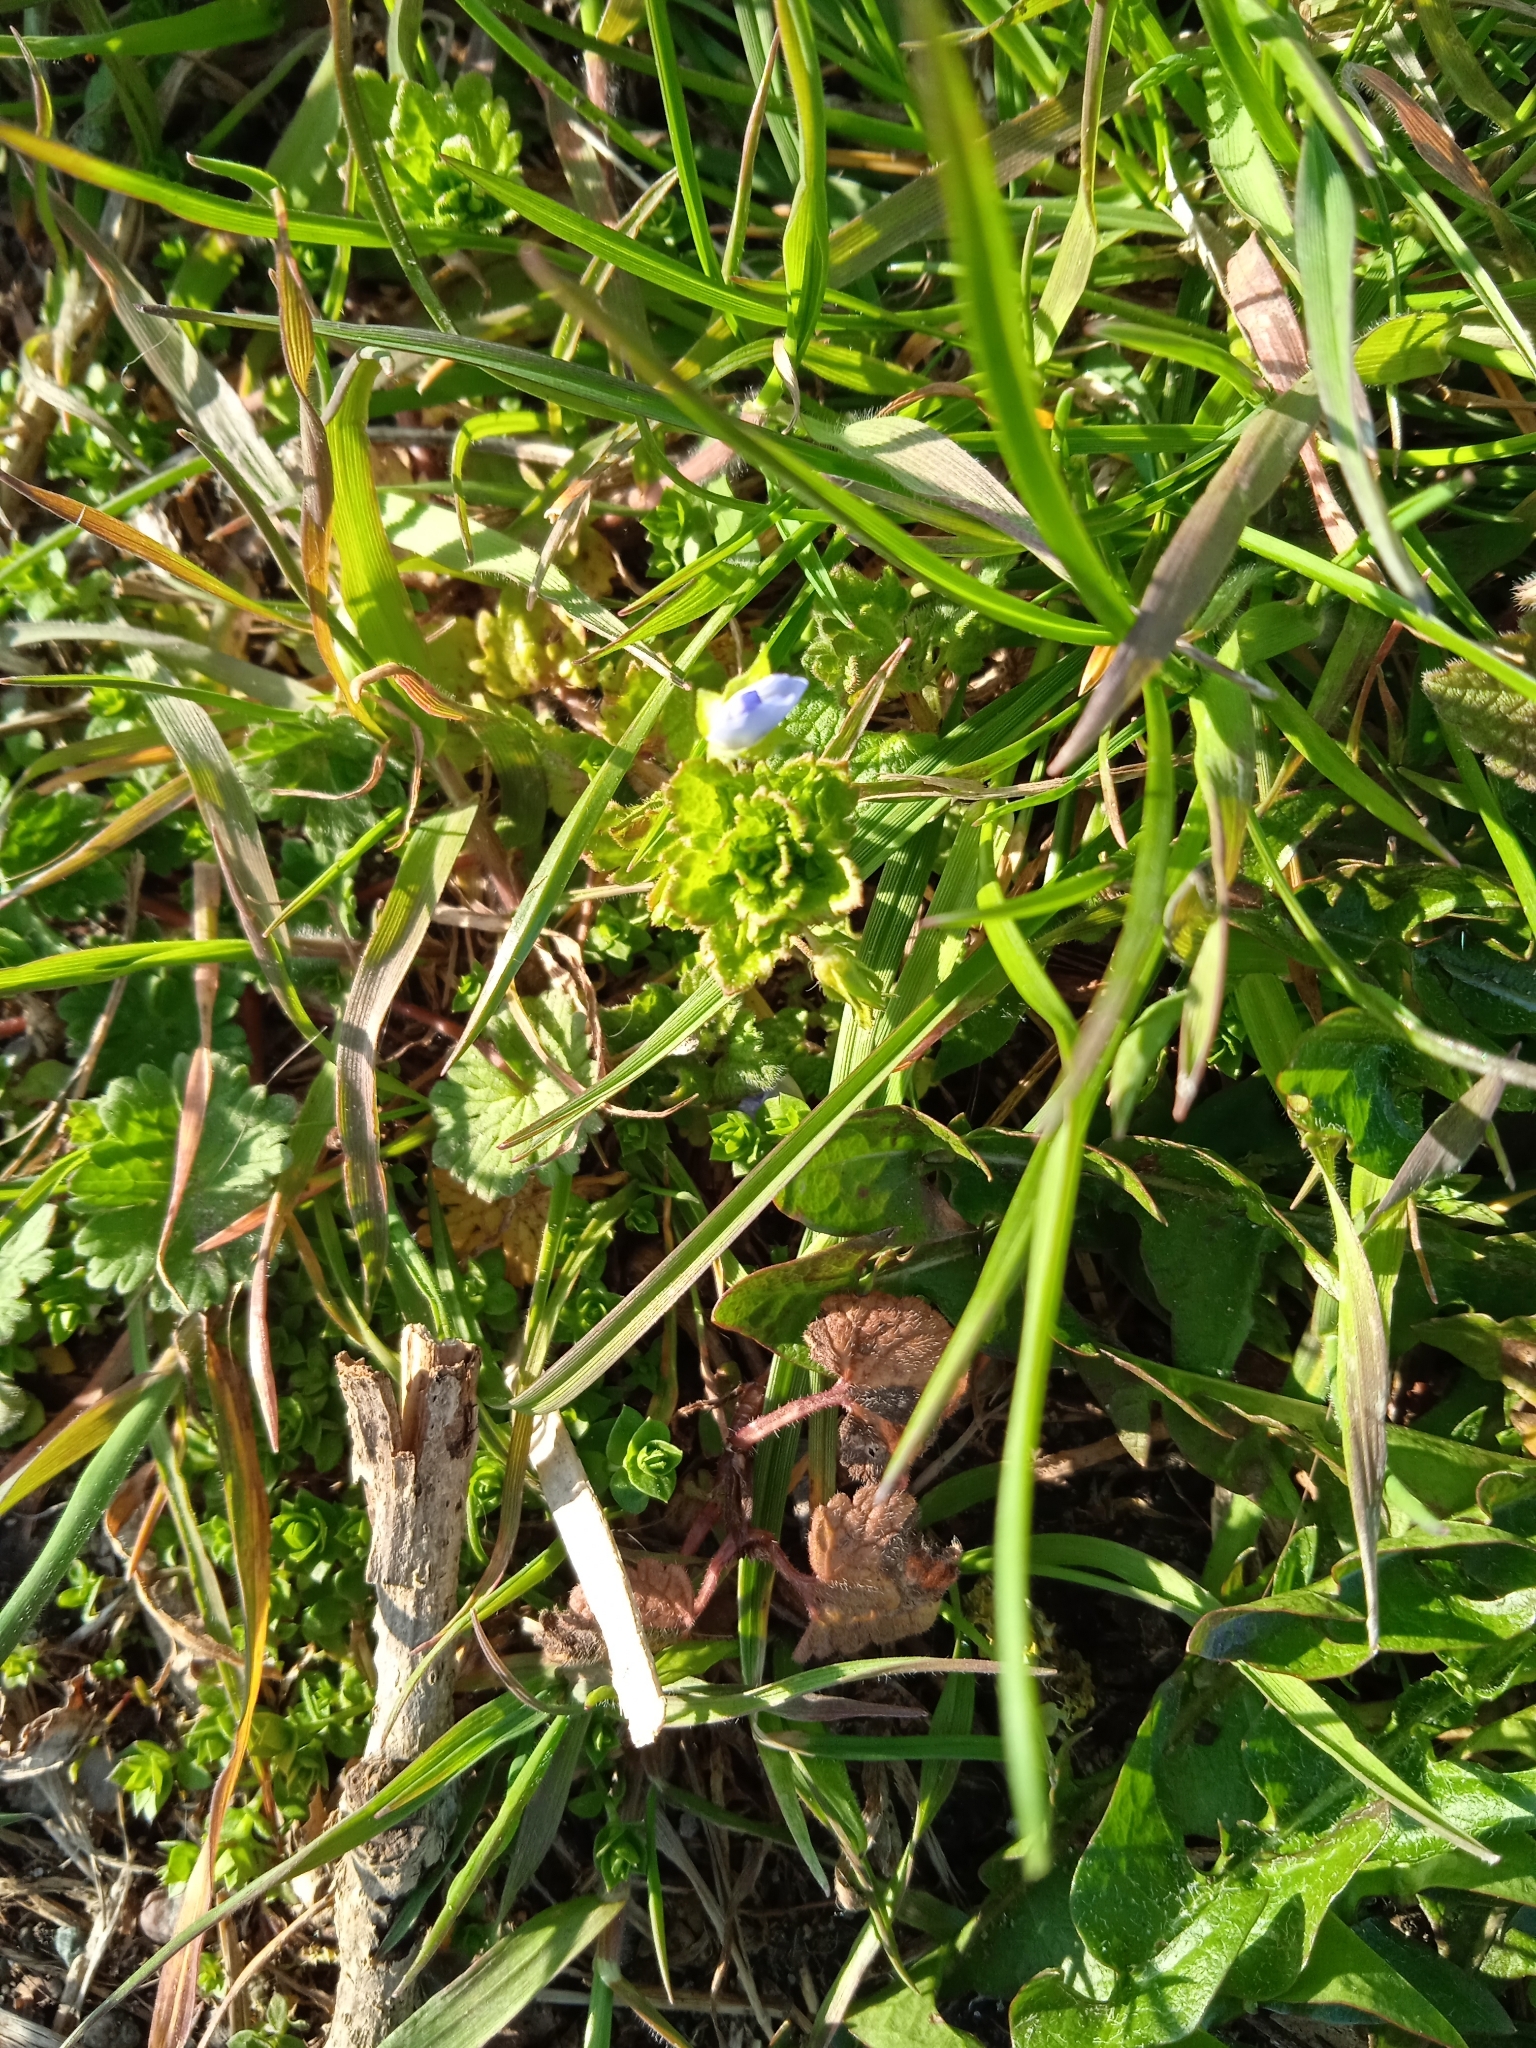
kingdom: Plantae
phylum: Tracheophyta
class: Magnoliopsida
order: Lamiales
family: Plantaginaceae
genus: Veronica
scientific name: Veronica persica
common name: Common field-speedwell
